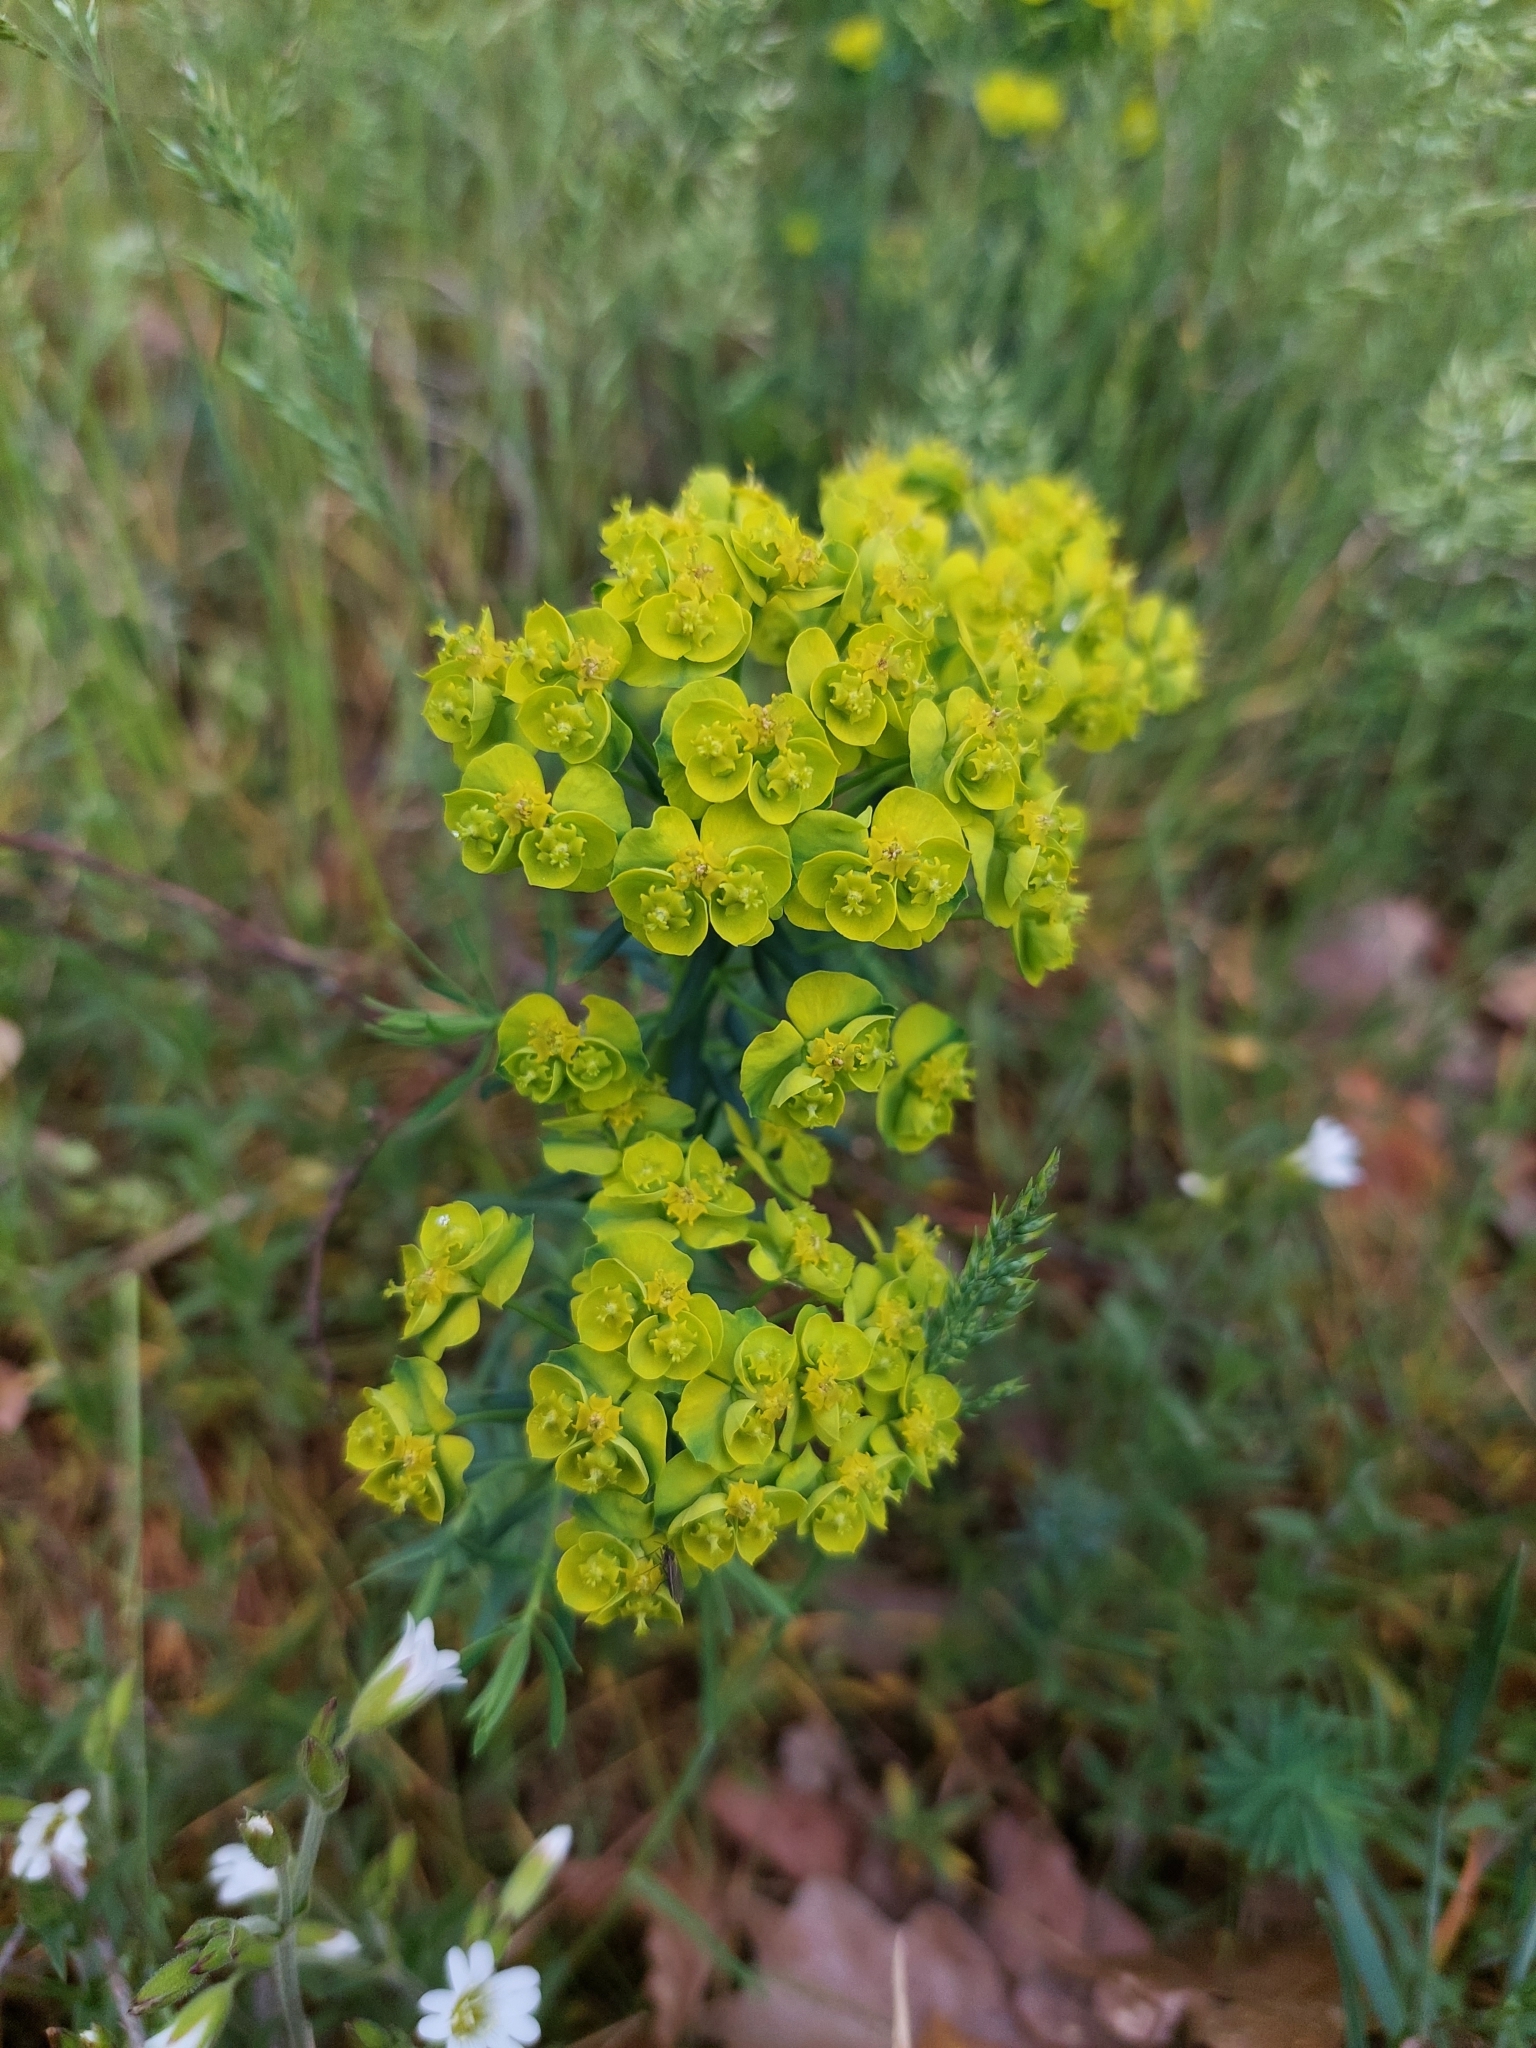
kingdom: Plantae
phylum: Tracheophyta
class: Magnoliopsida
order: Malpighiales
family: Euphorbiaceae
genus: Euphorbia
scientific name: Euphorbia cyparissias
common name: Cypress spurge
